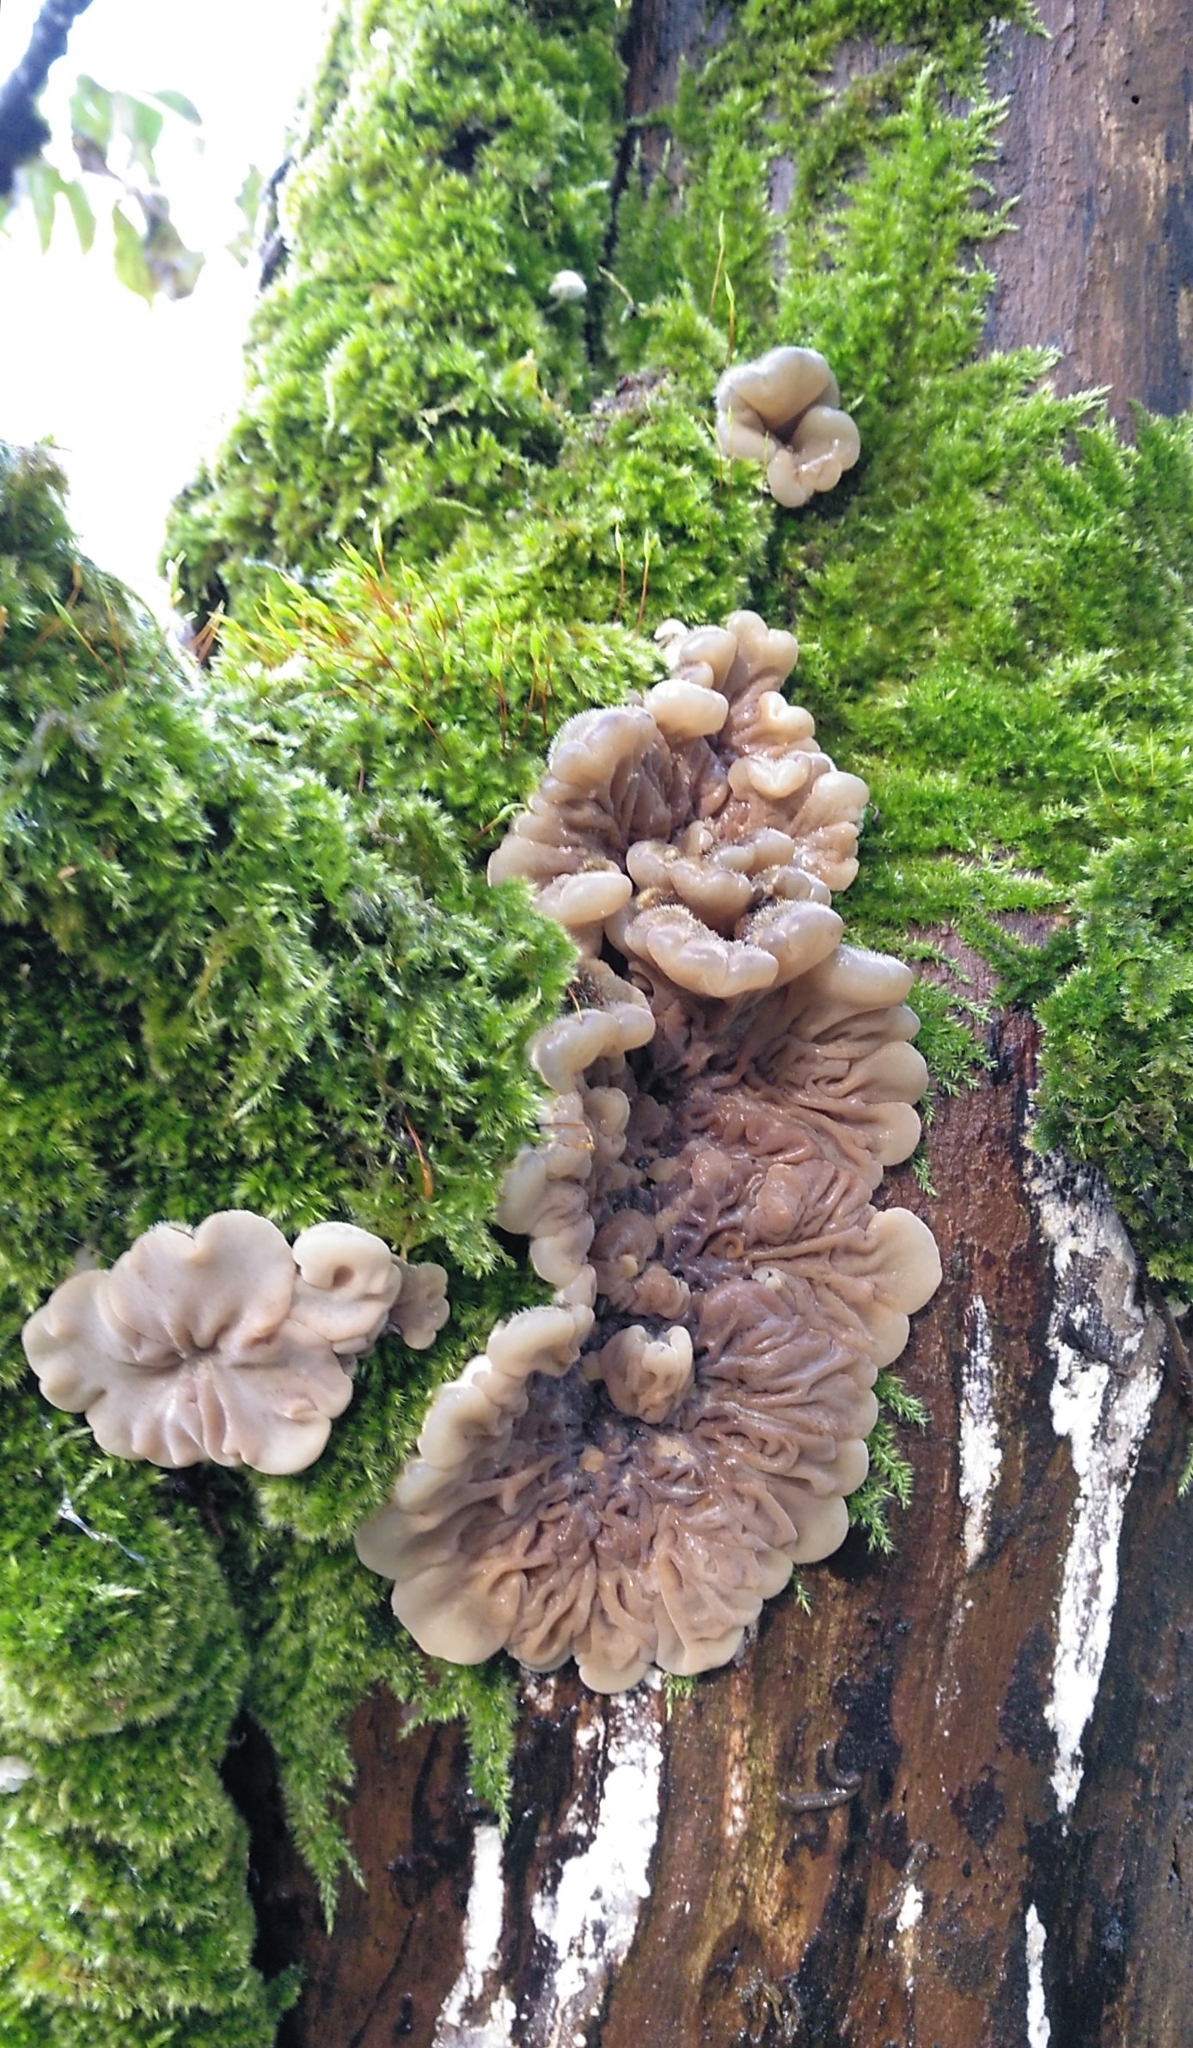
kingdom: Fungi
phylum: Basidiomycota
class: Agaricomycetes
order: Auriculariales
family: Auriculariaceae
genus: Auricularia
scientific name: Auricularia mesenterica
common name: Tripe fungus
